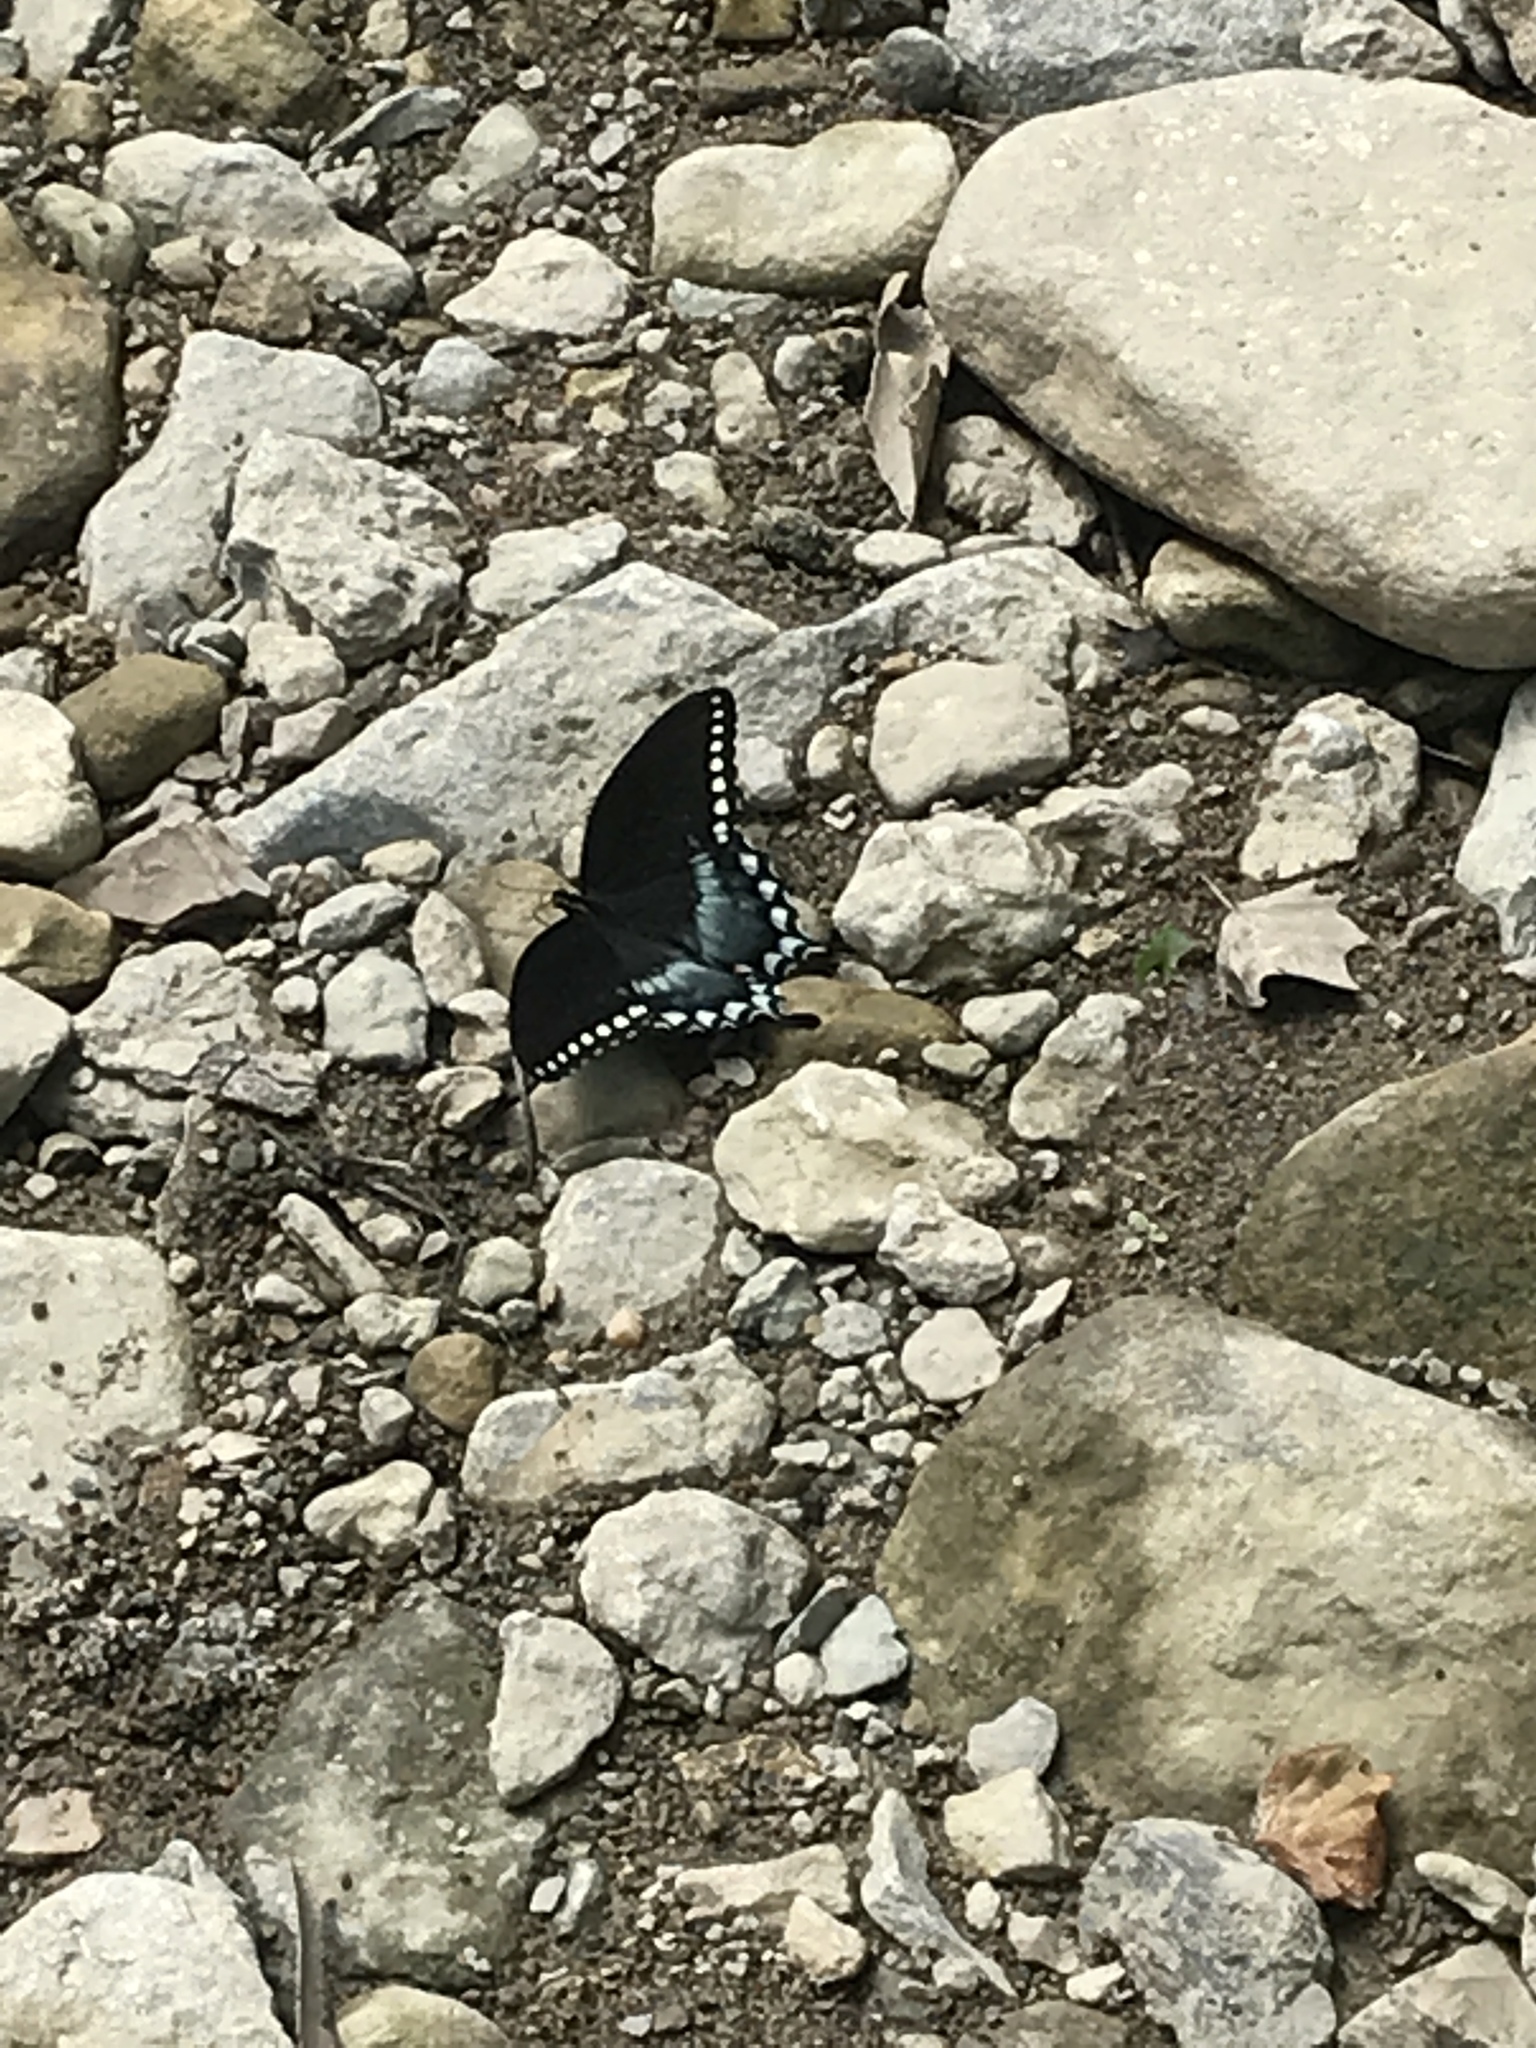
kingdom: Animalia
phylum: Arthropoda
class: Insecta
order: Lepidoptera
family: Papilionidae
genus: Papilio
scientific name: Papilio troilus
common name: Spicebush swallowtail
